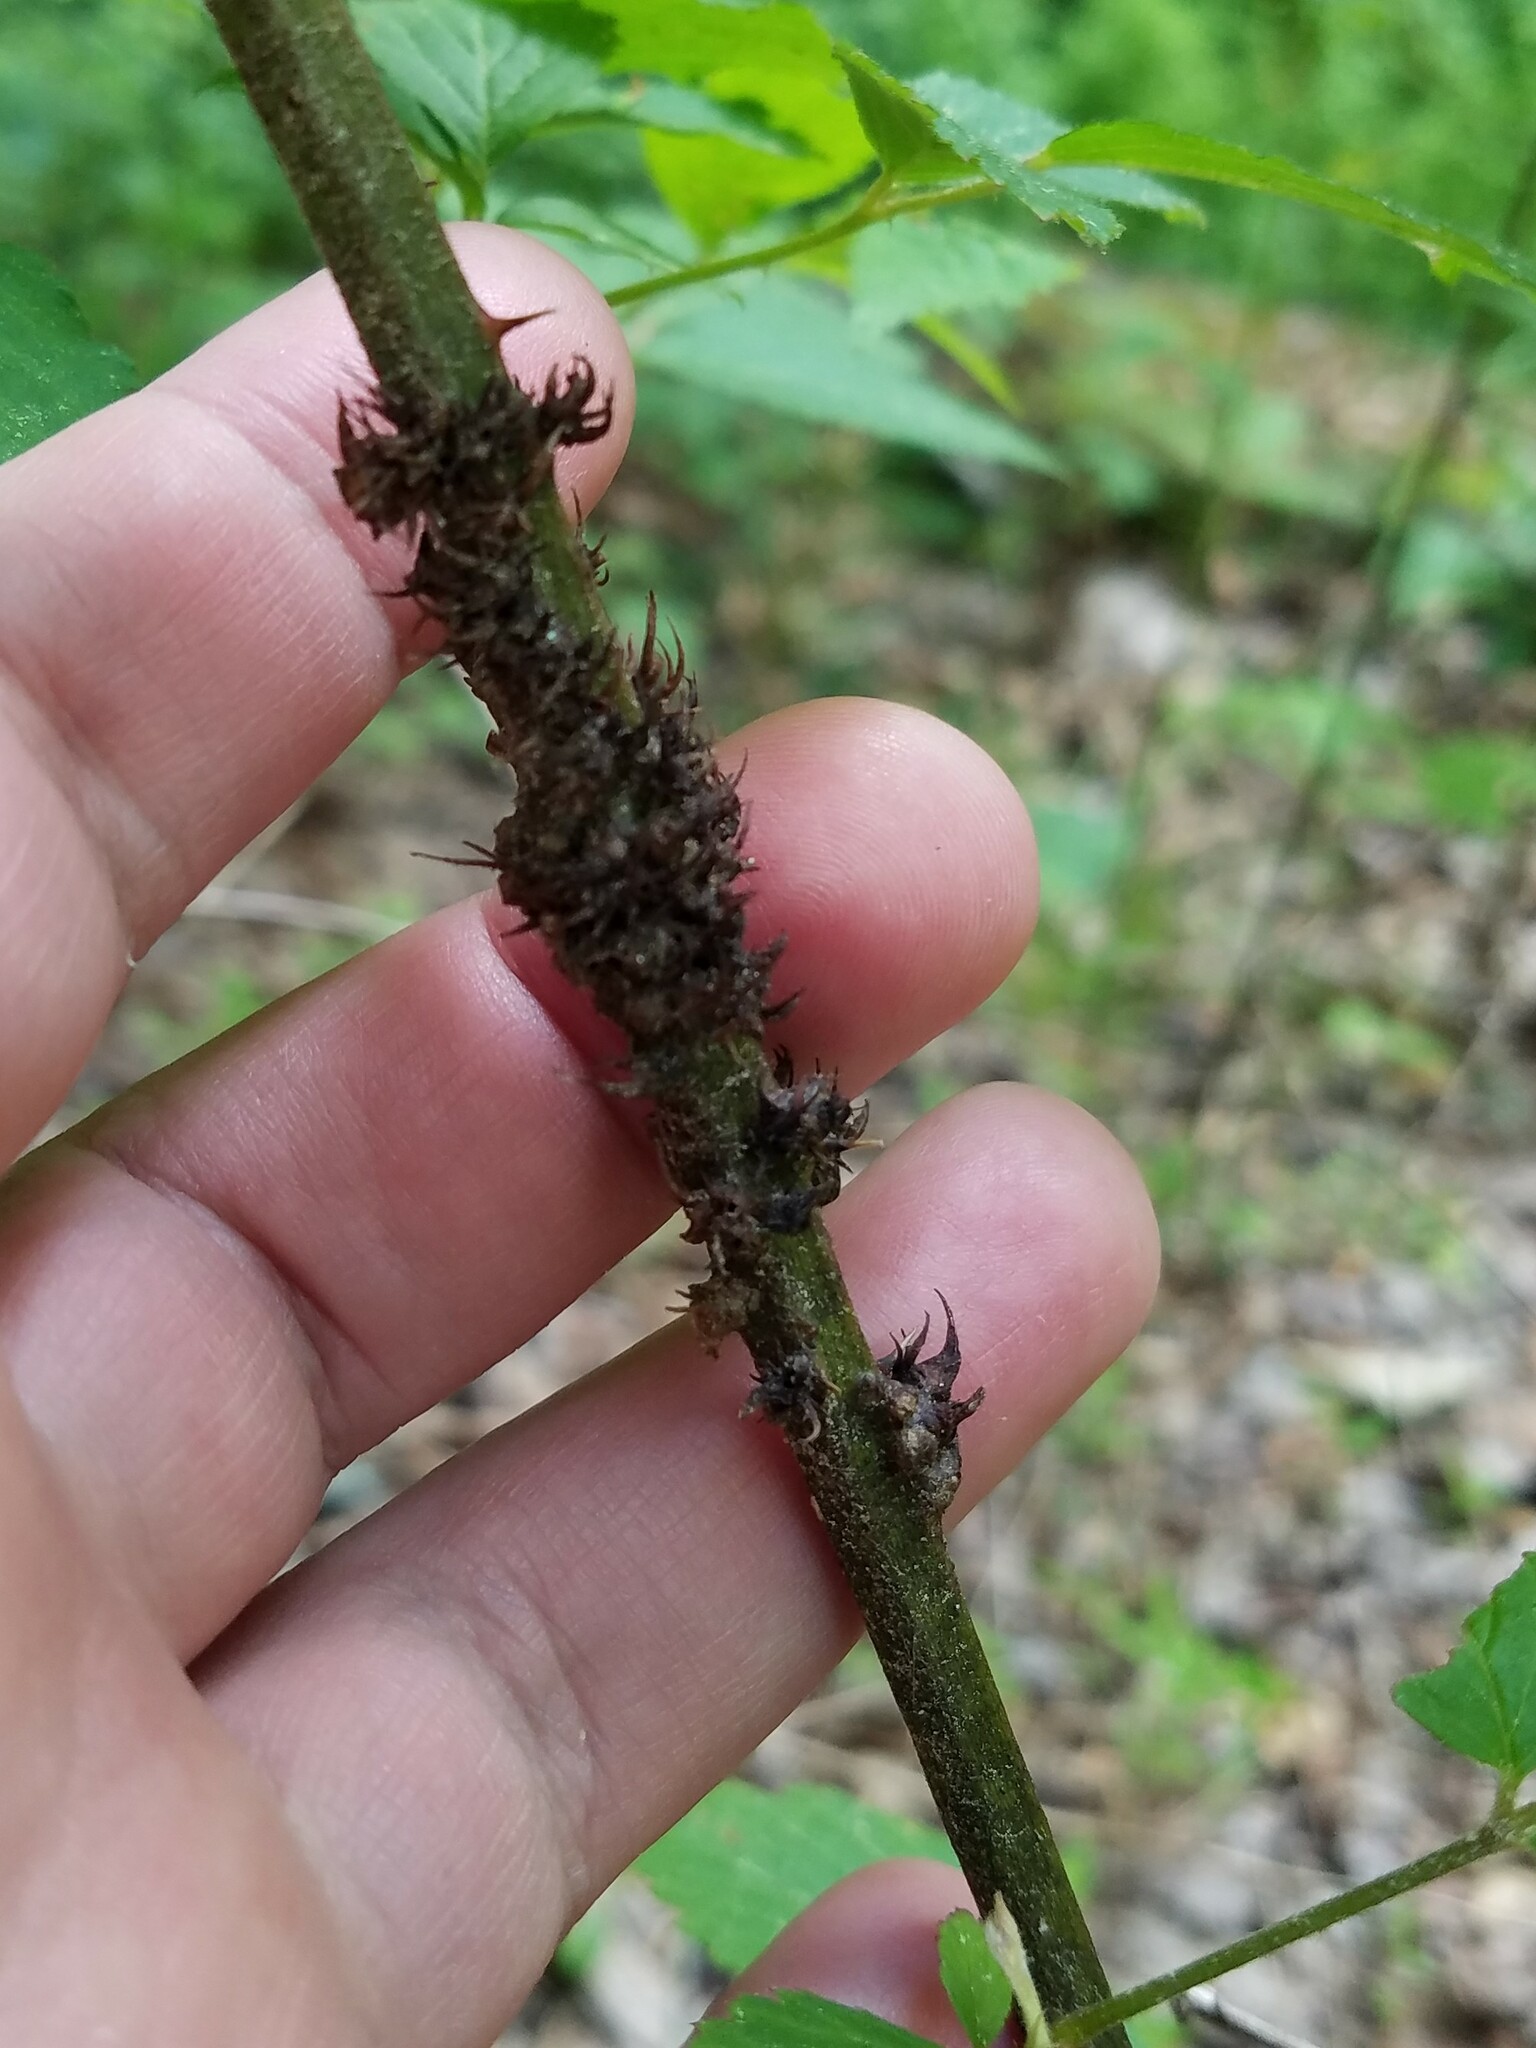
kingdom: Animalia
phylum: Arthropoda
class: Insecta
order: Hymenoptera
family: Cynipidae
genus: Diastrophus
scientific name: Diastrophus
